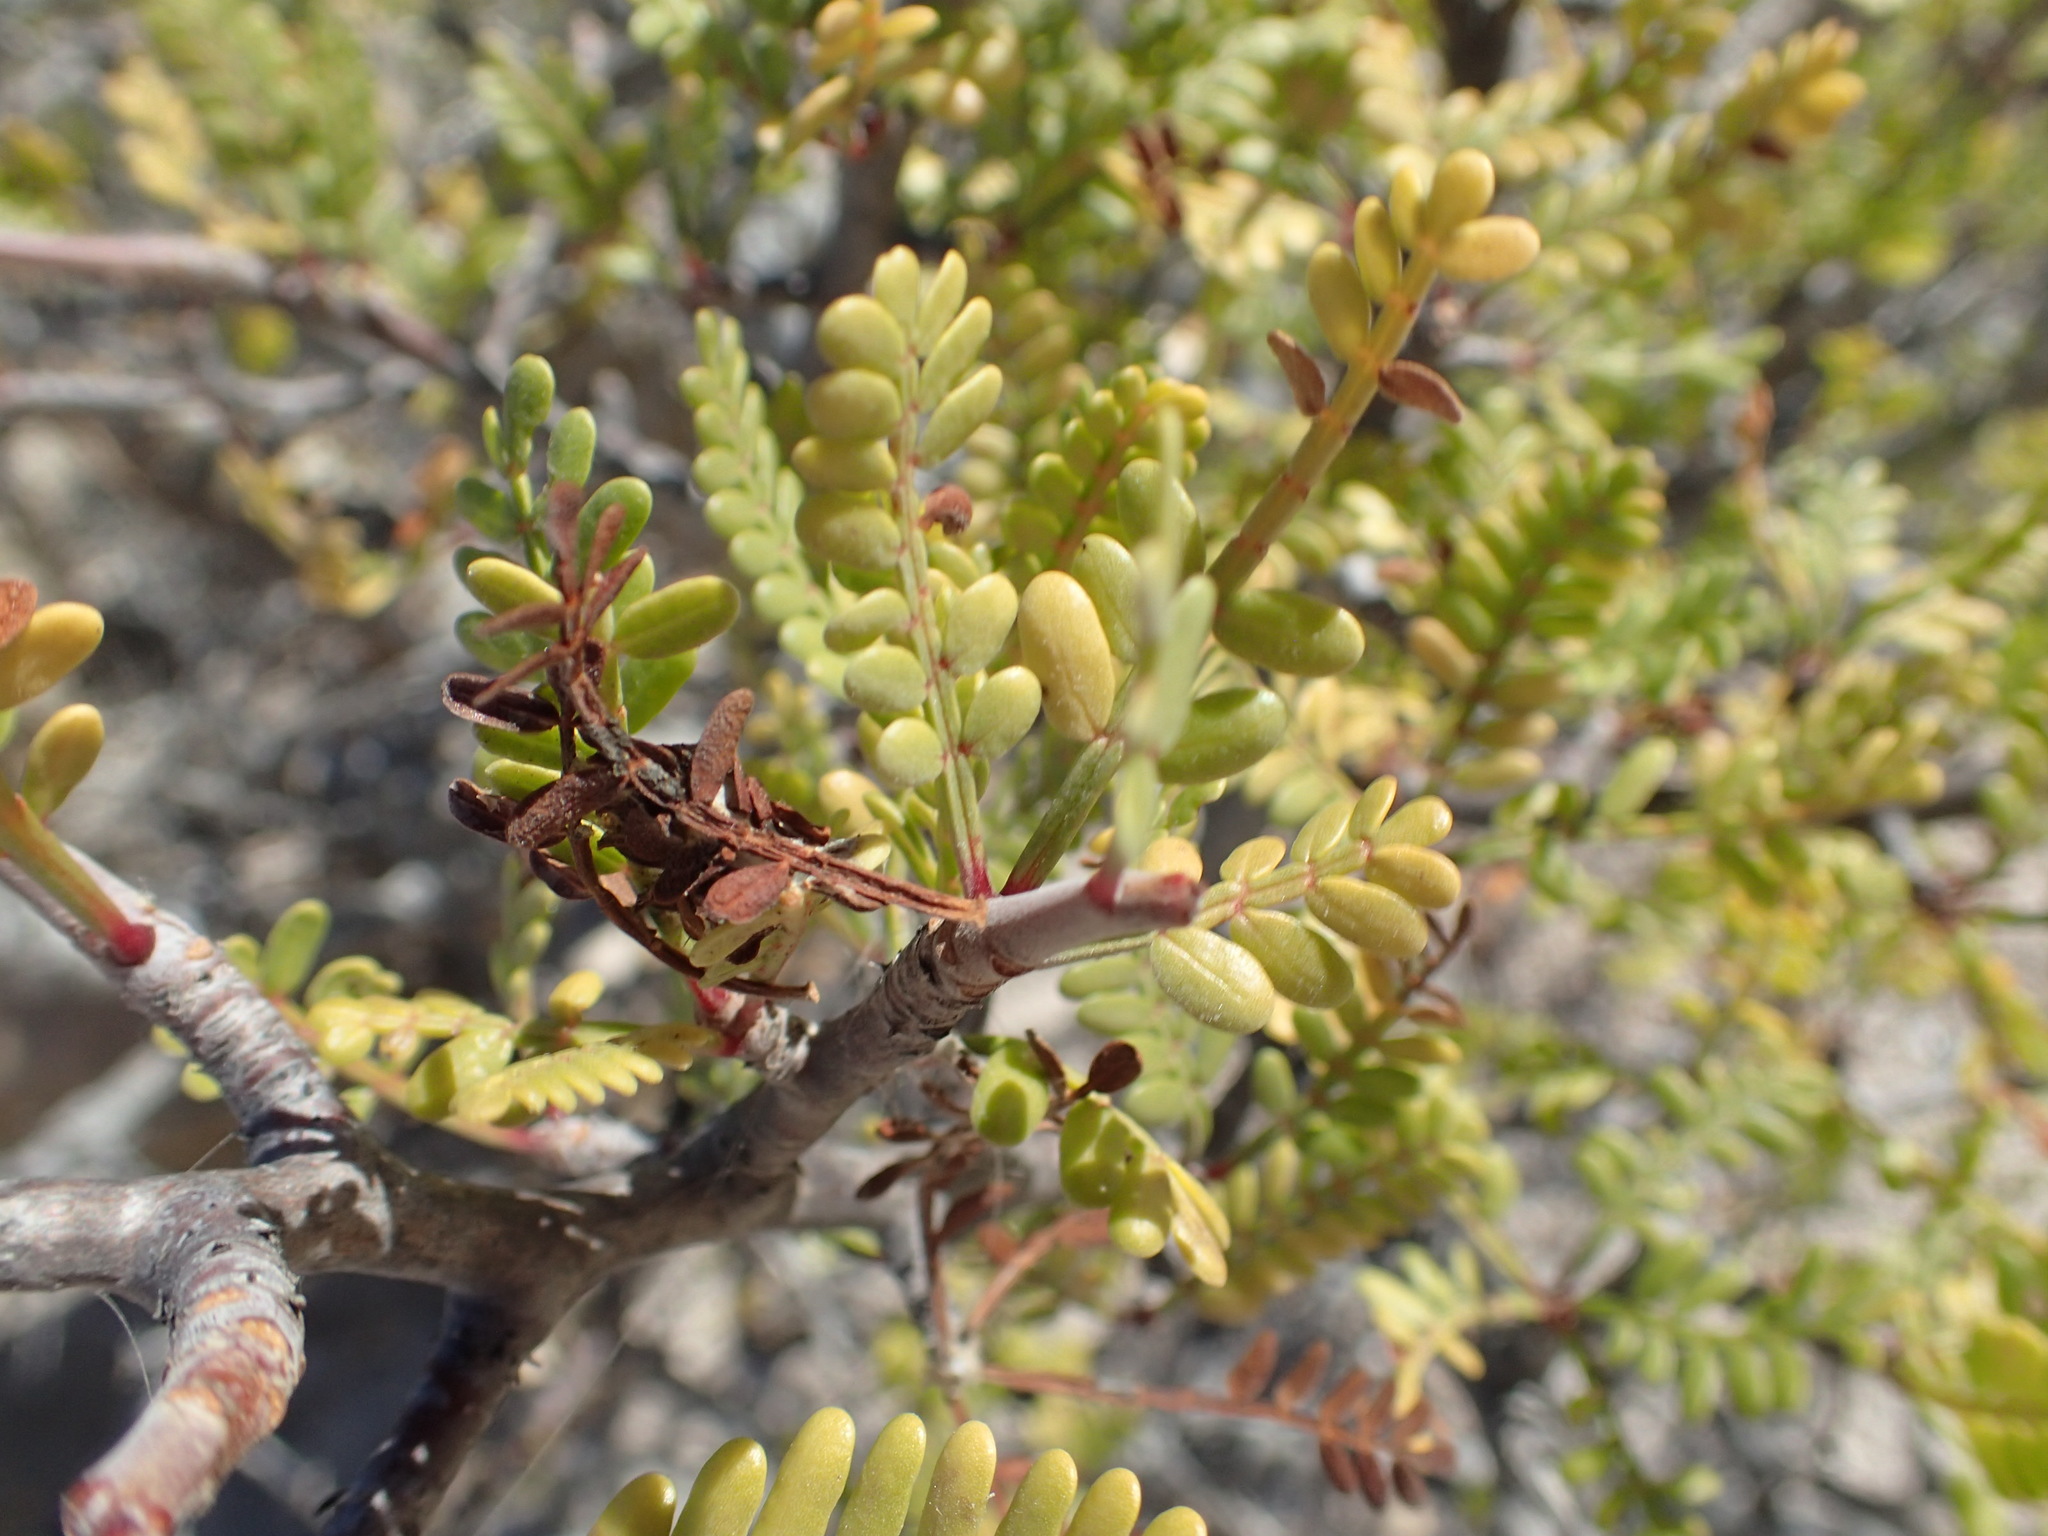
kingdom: Plantae
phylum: Tracheophyta
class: Magnoliopsida
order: Sapindales
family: Burseraceae
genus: Bursera
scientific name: Bursera microphylla
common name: Elephant tree
